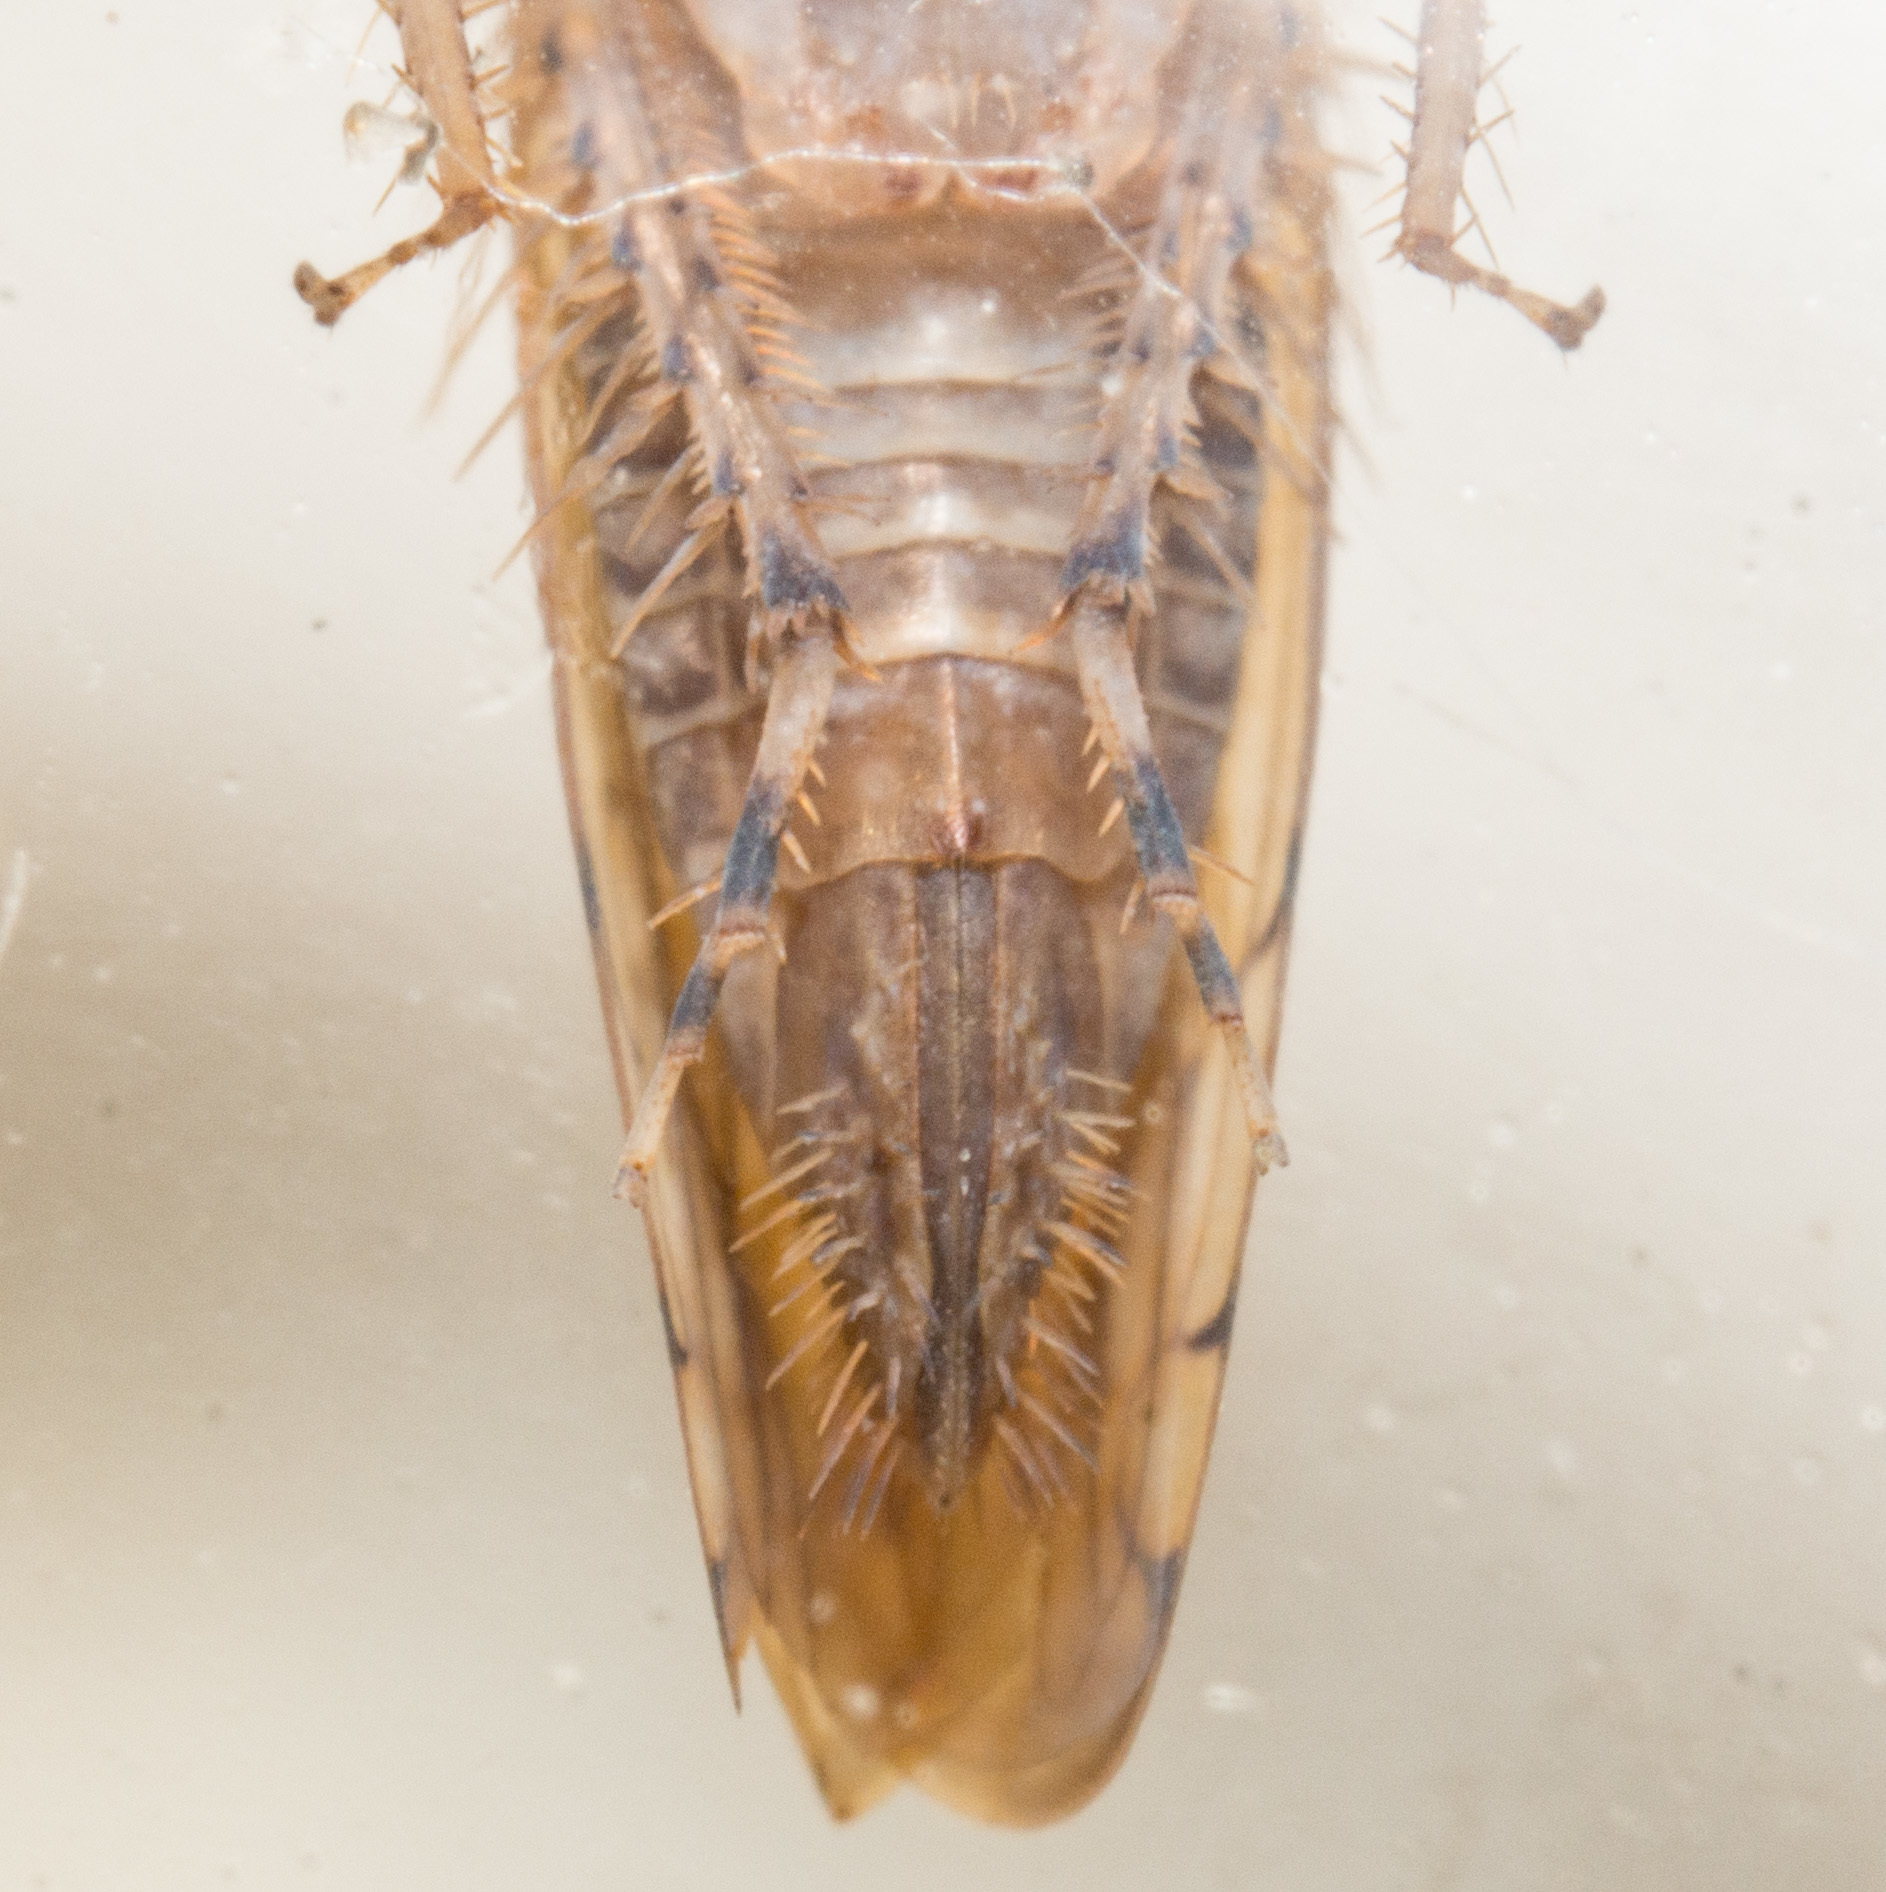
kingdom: Animalia
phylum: Arthropoda
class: Insecta
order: Hemiptera
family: Cicadellidae
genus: Osbornellus
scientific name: Osbornellus rotundus
